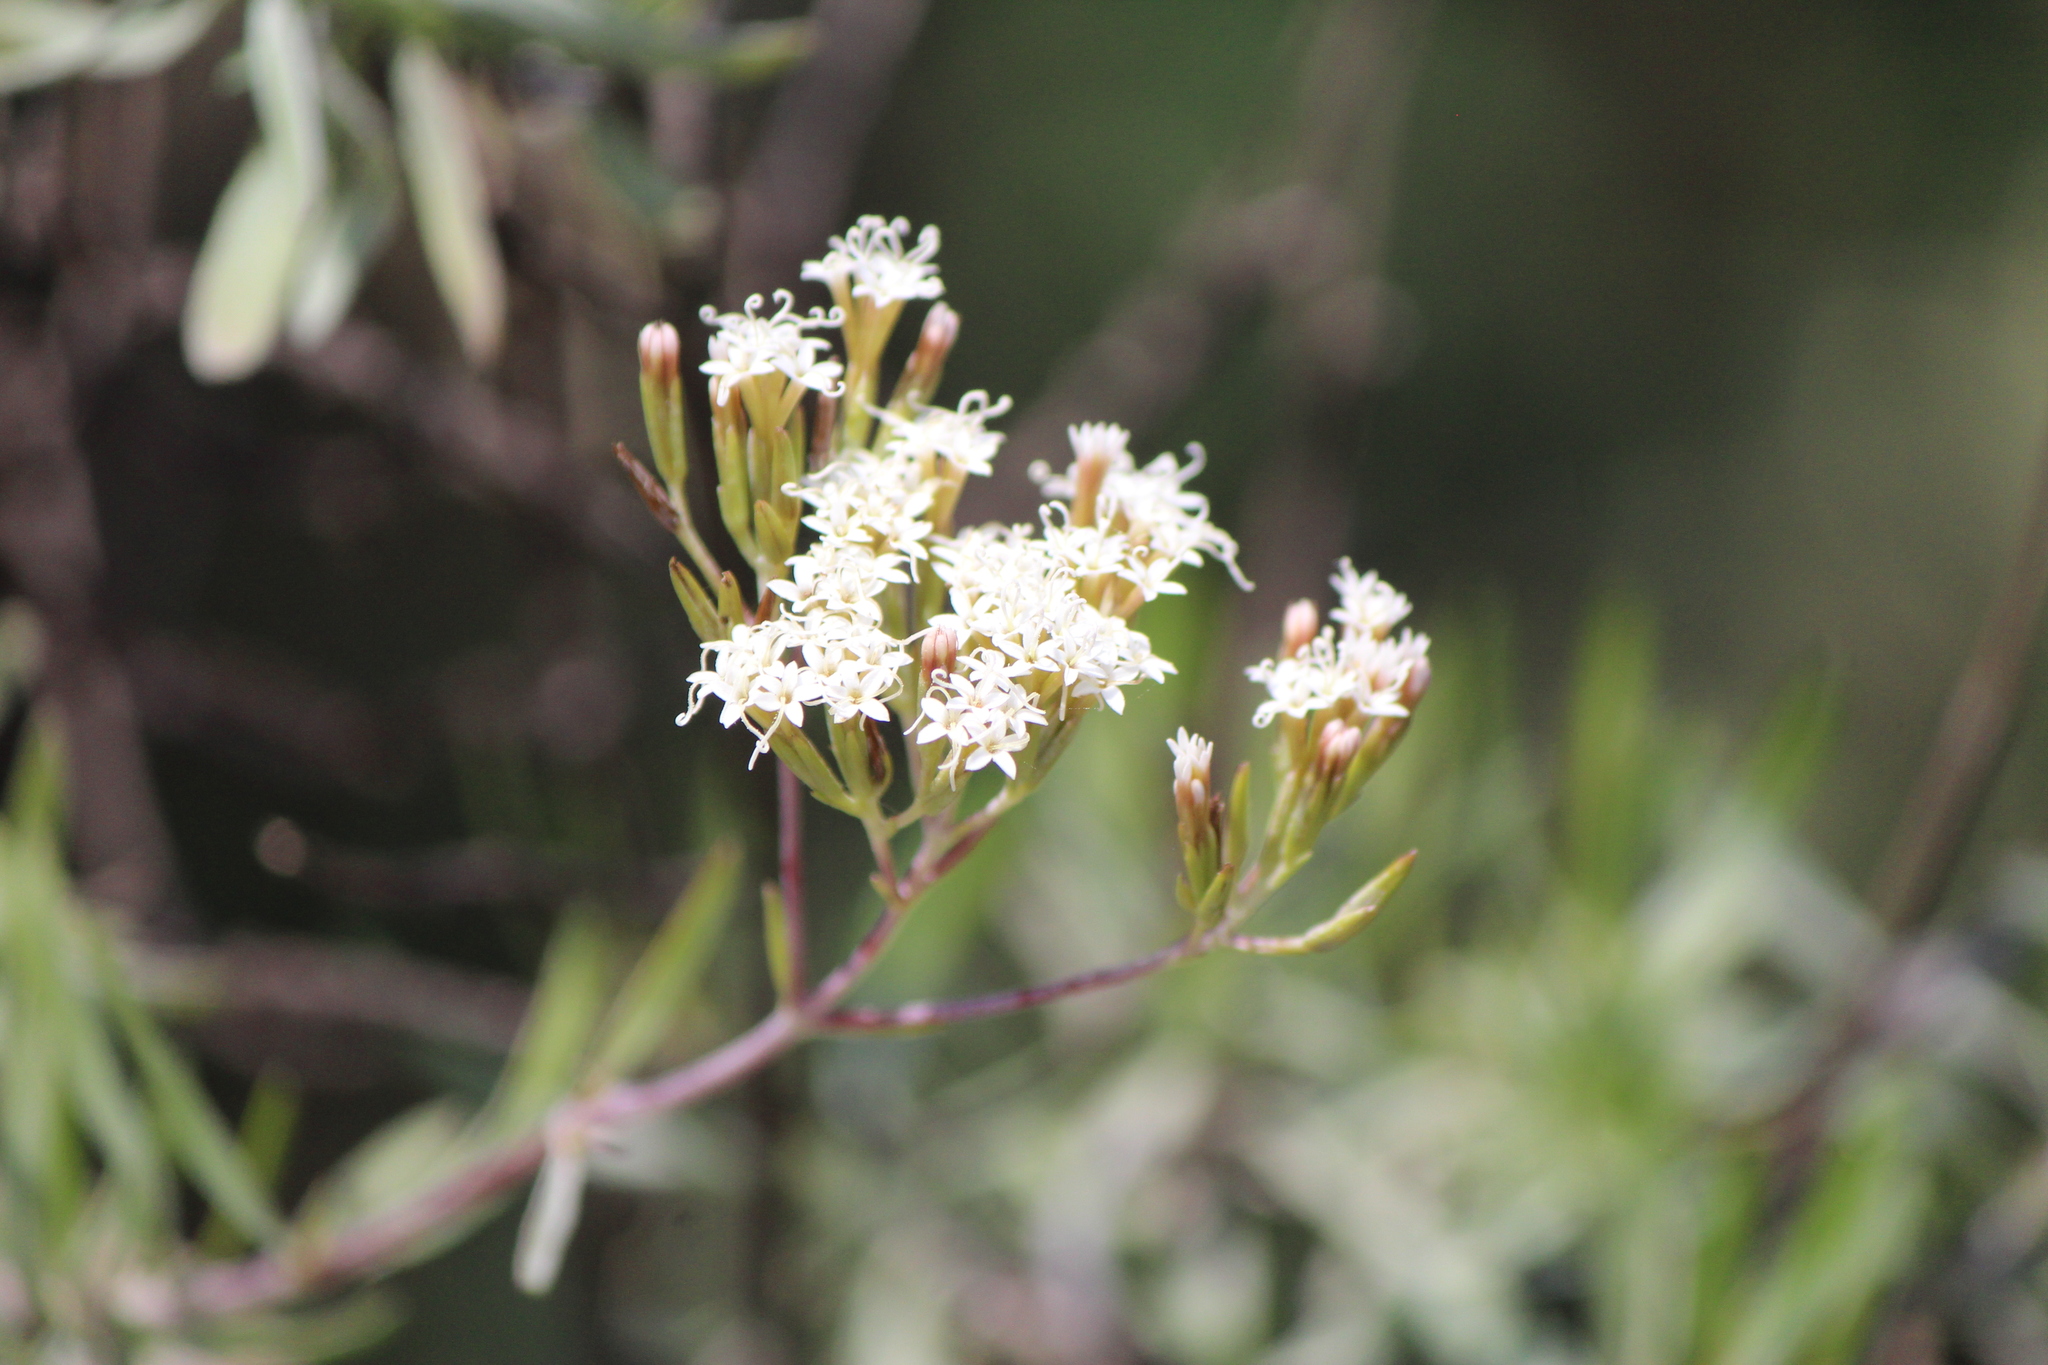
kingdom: Plantae
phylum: Tracheophyta
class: Magnoliopsida
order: Asterales
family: Asteraceae
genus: Stevia
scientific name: Stevia salicifolia
